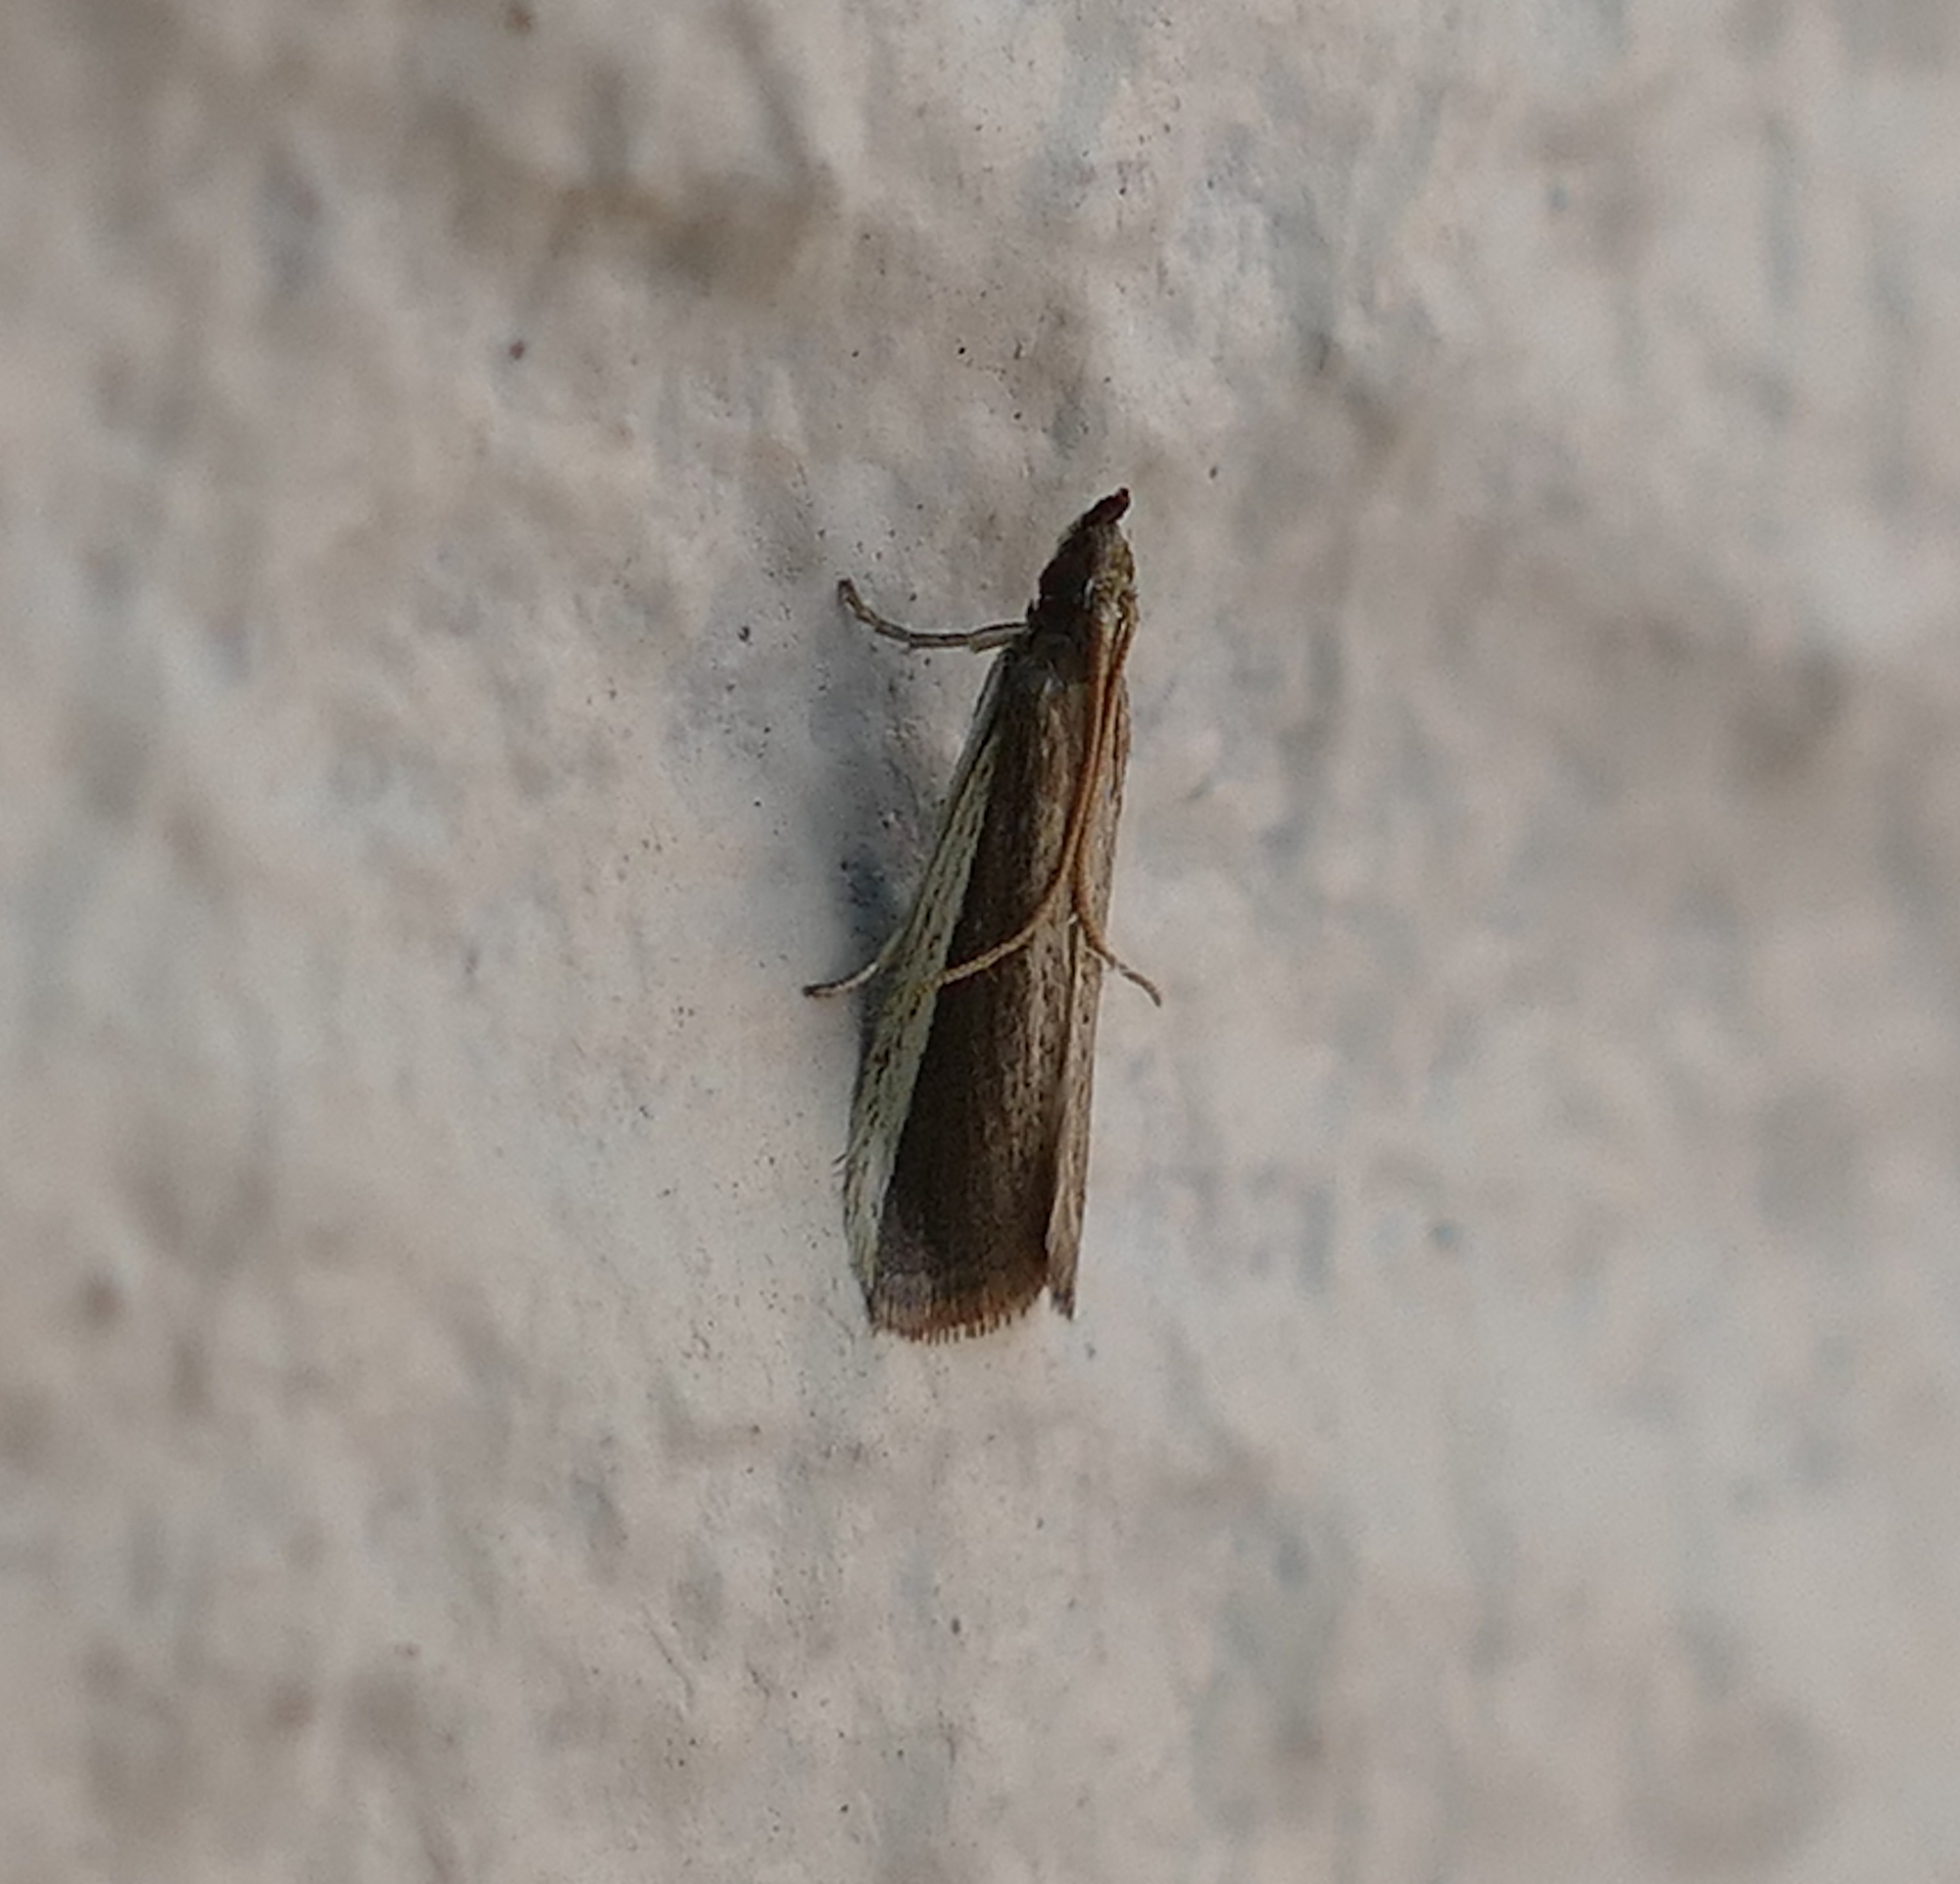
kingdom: Animalia
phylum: Arthropoda
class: Insecta
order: Lepidoptera
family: Pyralidae
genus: Homosassa
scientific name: Homosassa ella
